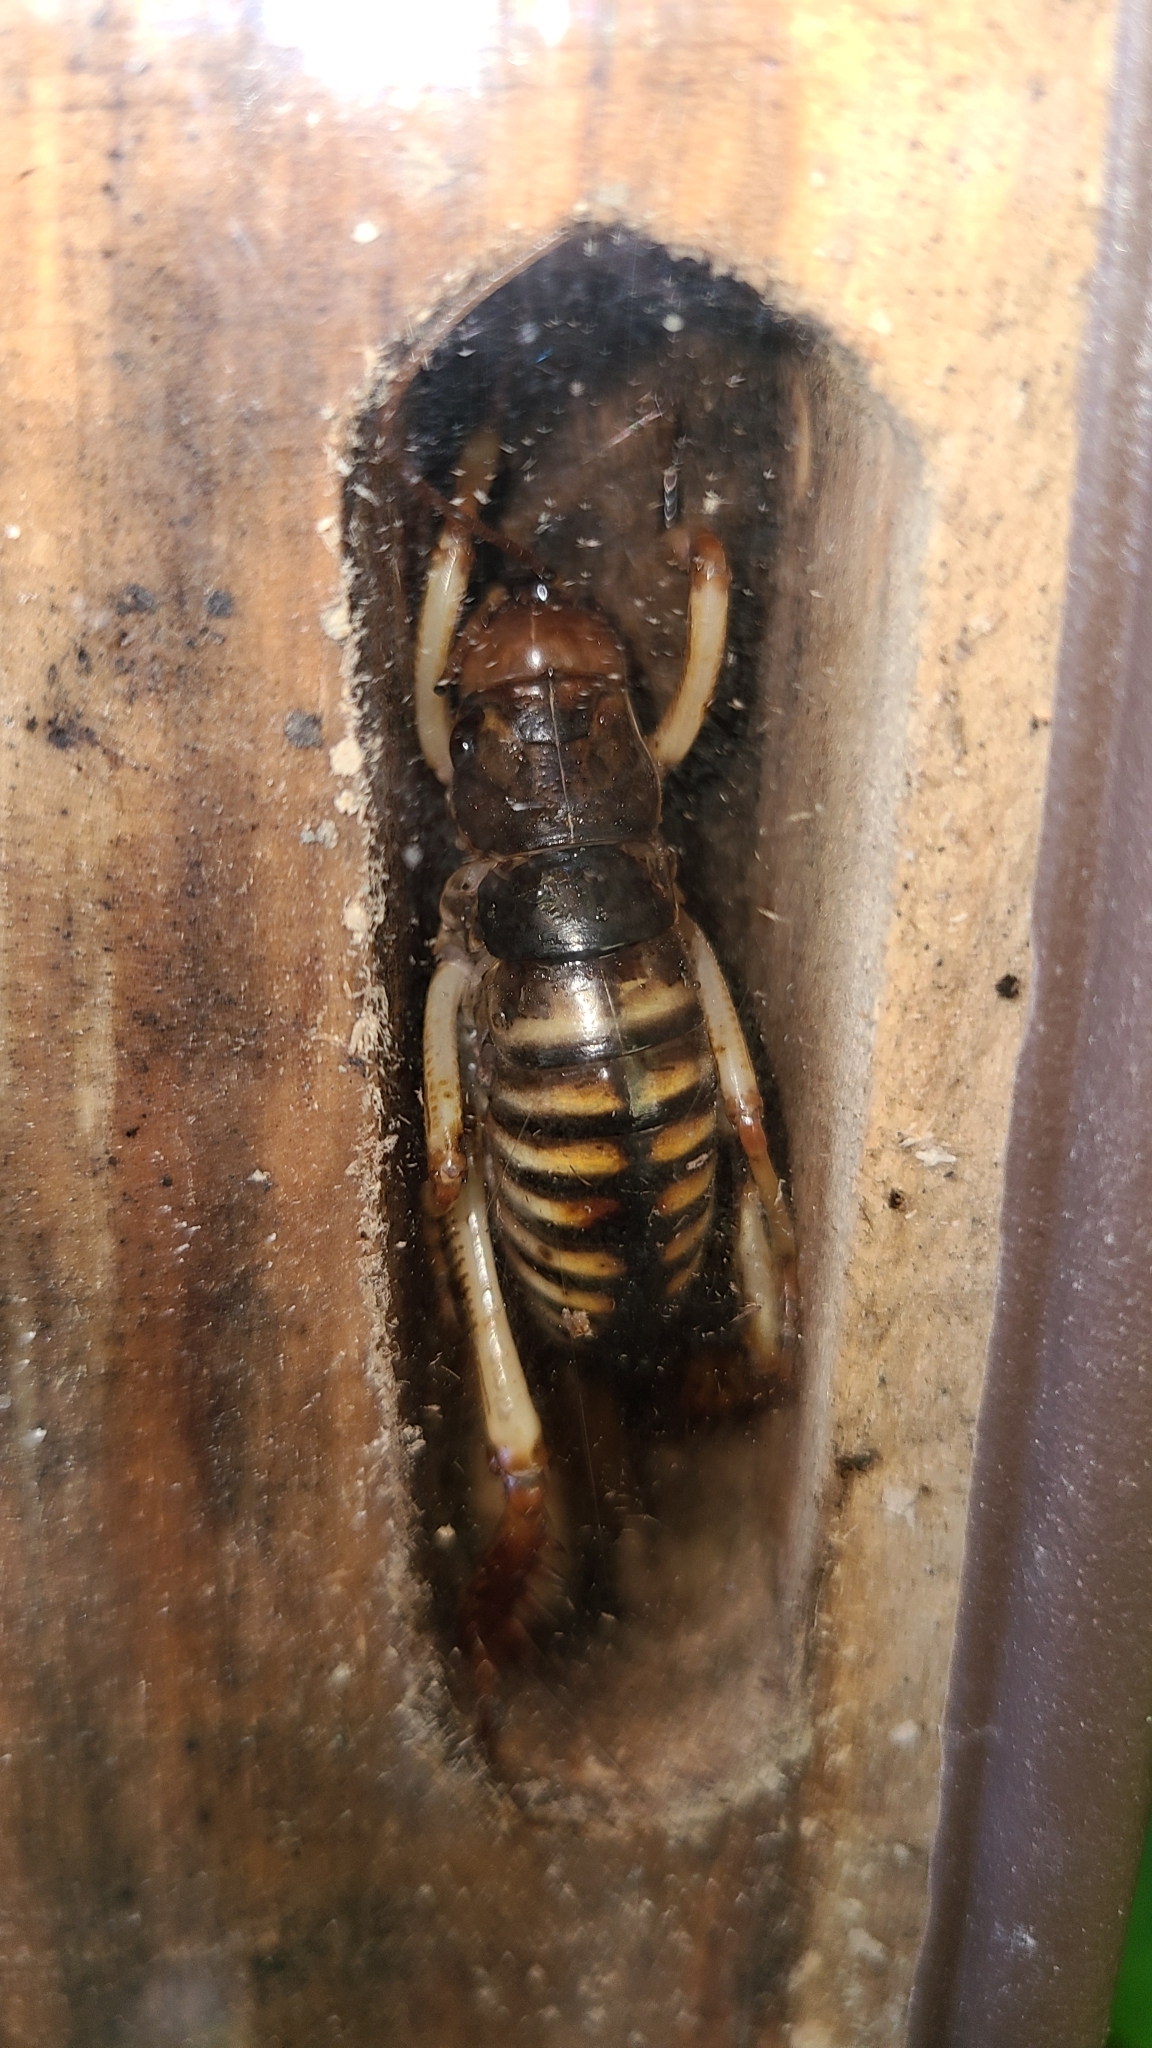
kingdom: Animalia
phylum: Arthropoda
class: Insecta
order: Orthoptera
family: Anostostomatidae
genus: Hemideina
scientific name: Hemideina crassidens
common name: Wellington tree weta
